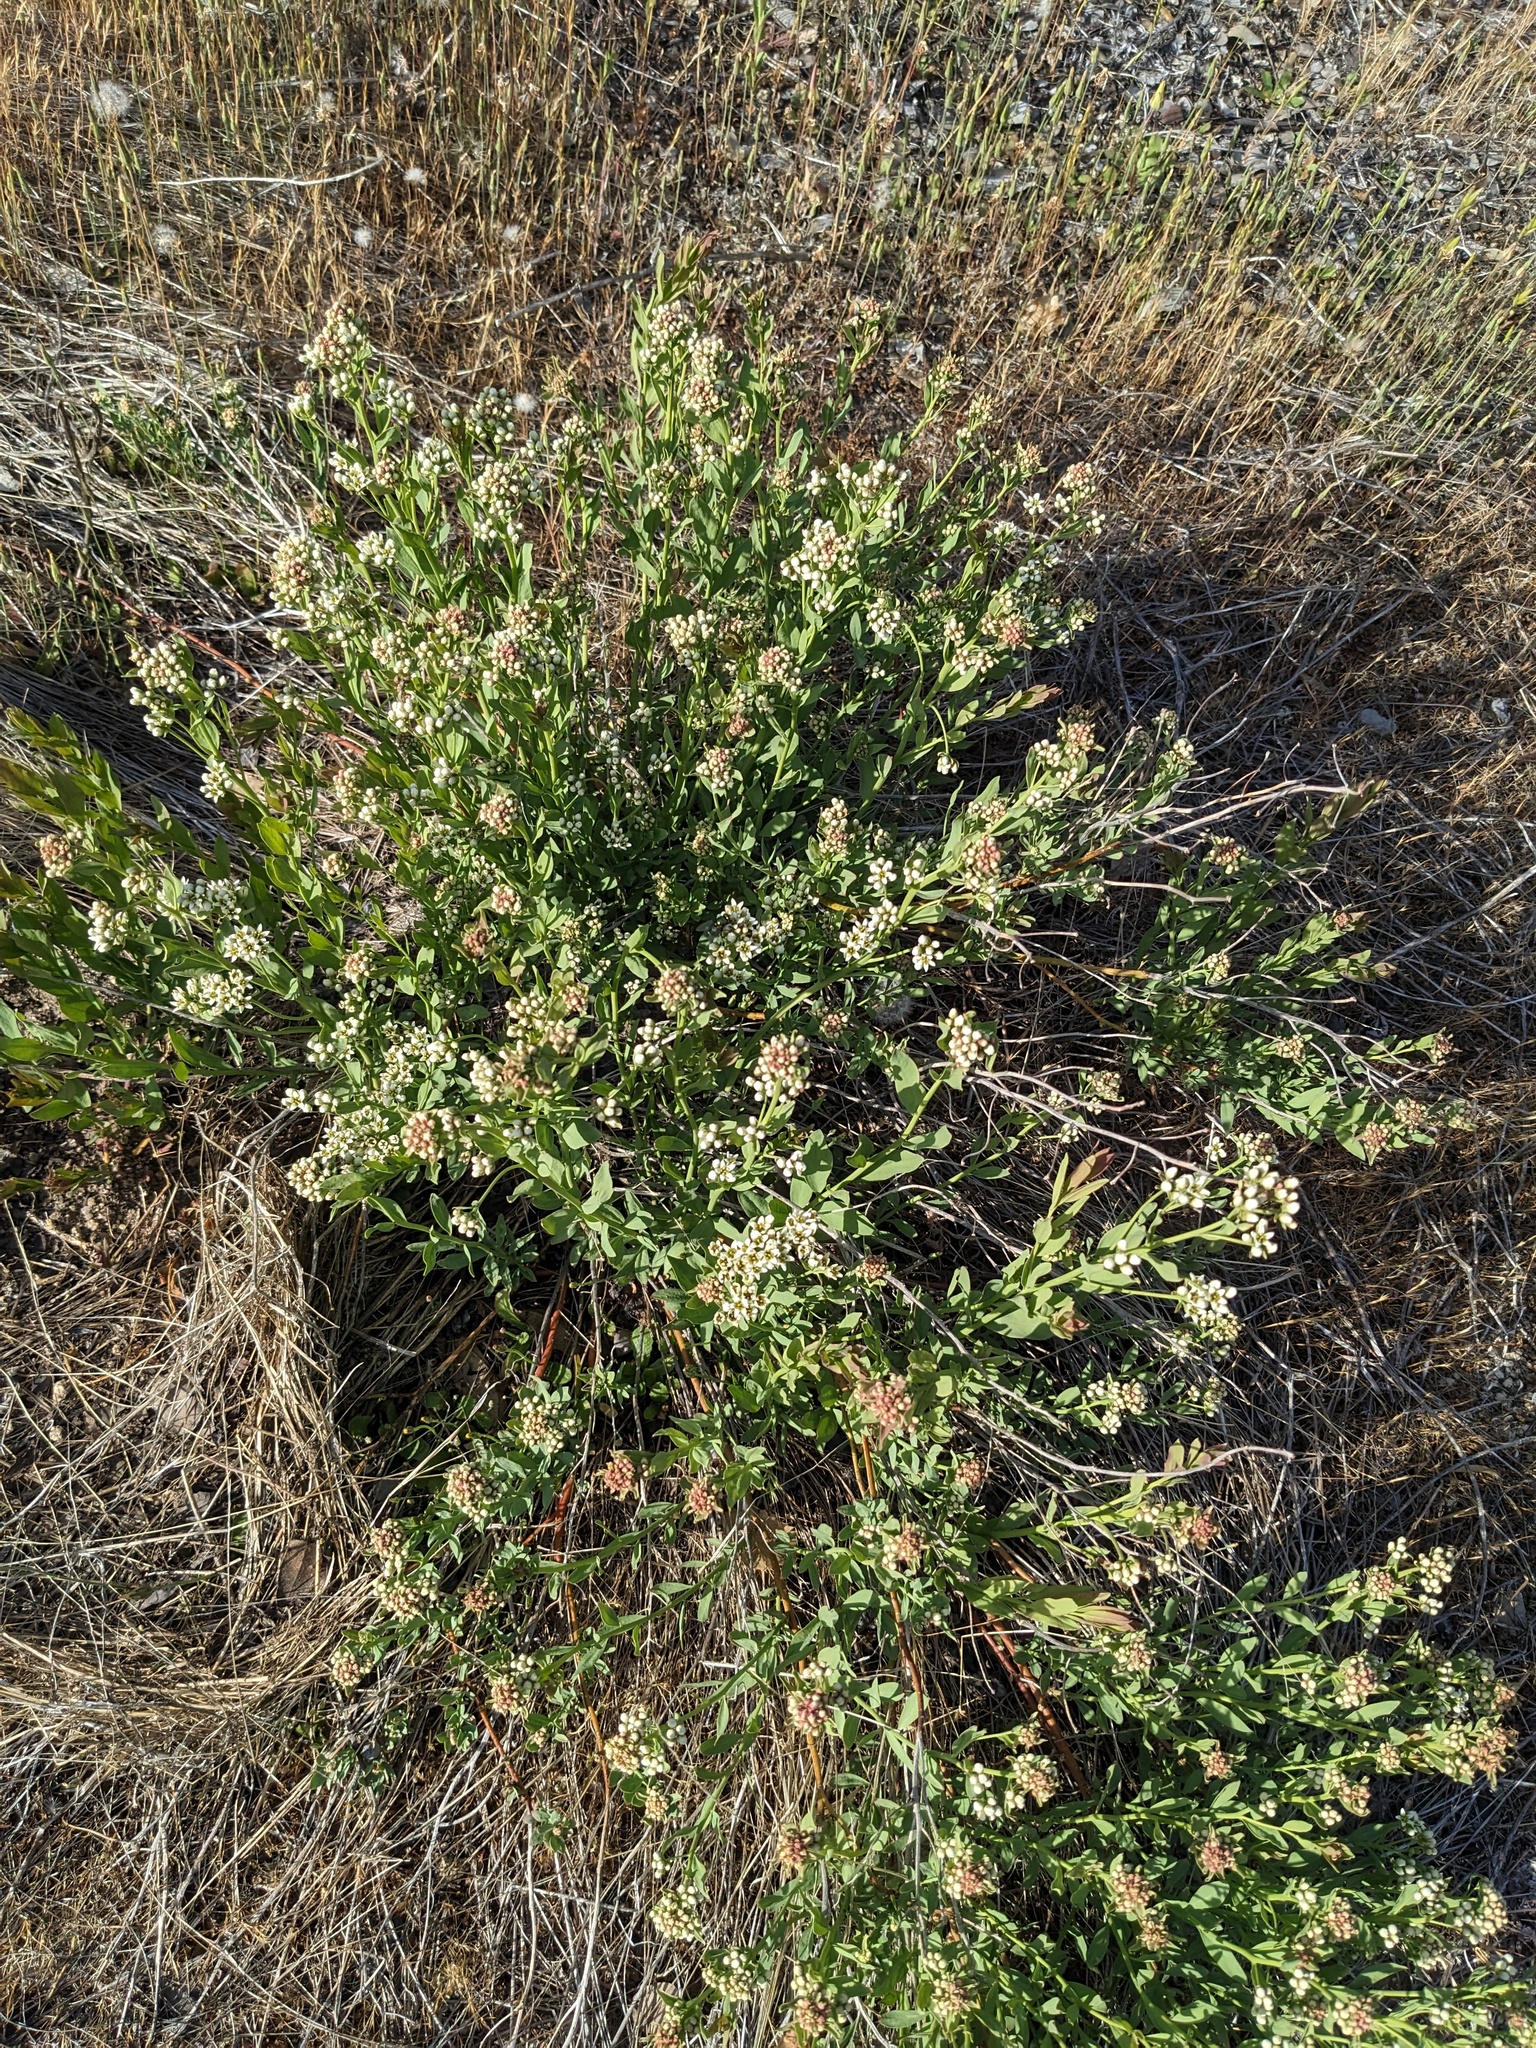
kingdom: Plantae
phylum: Tracheophyta
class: Magnoliopsida
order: Santalales
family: Comandraceae
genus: Comandra
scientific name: Comandra umbellata
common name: Bastard toadflax
